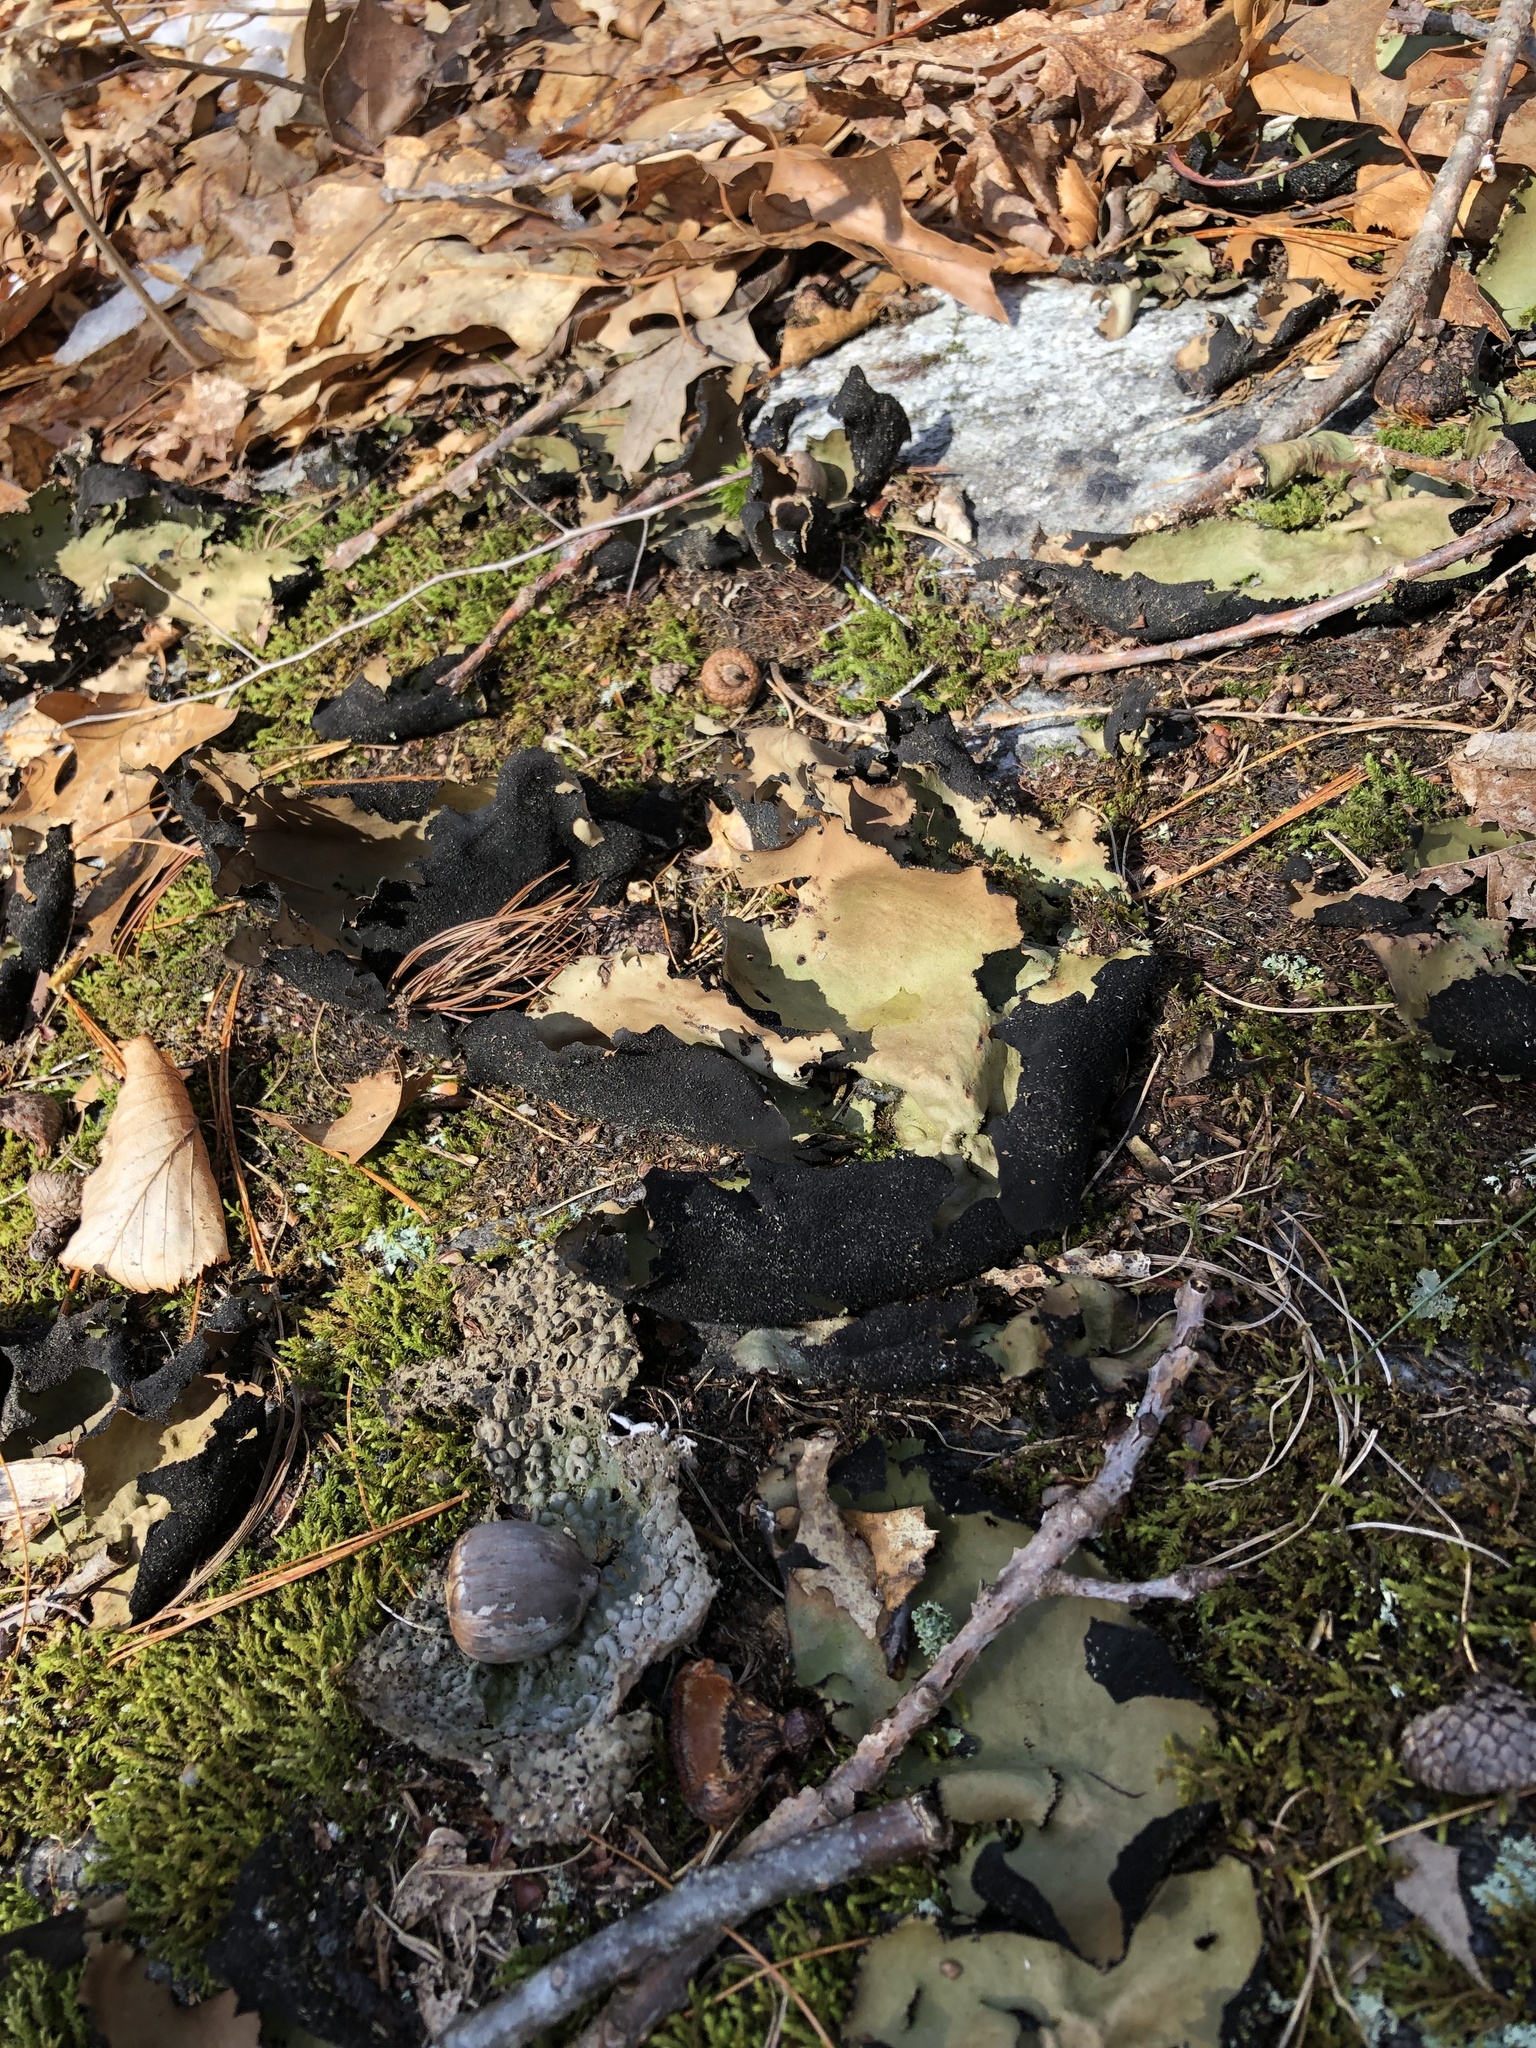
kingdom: Fungi
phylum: Ascomycota
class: Lecanoromycetes
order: Umbilicariales
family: Umbilicariaceae
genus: Umbilicaria
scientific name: Umbilicaria mammulata
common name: Smooth rock tripe
